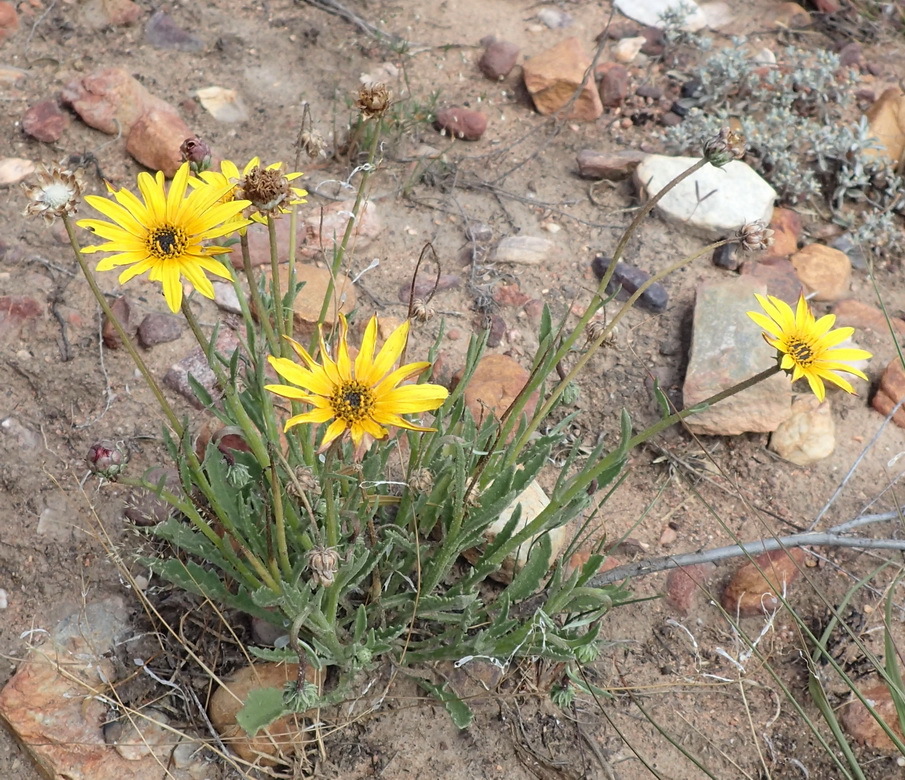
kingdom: Plantae
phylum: Tracheophyta
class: Magnoliopsida
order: Asterales
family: Asteraceae
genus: Arctotis
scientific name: Arctotis lanceolata
